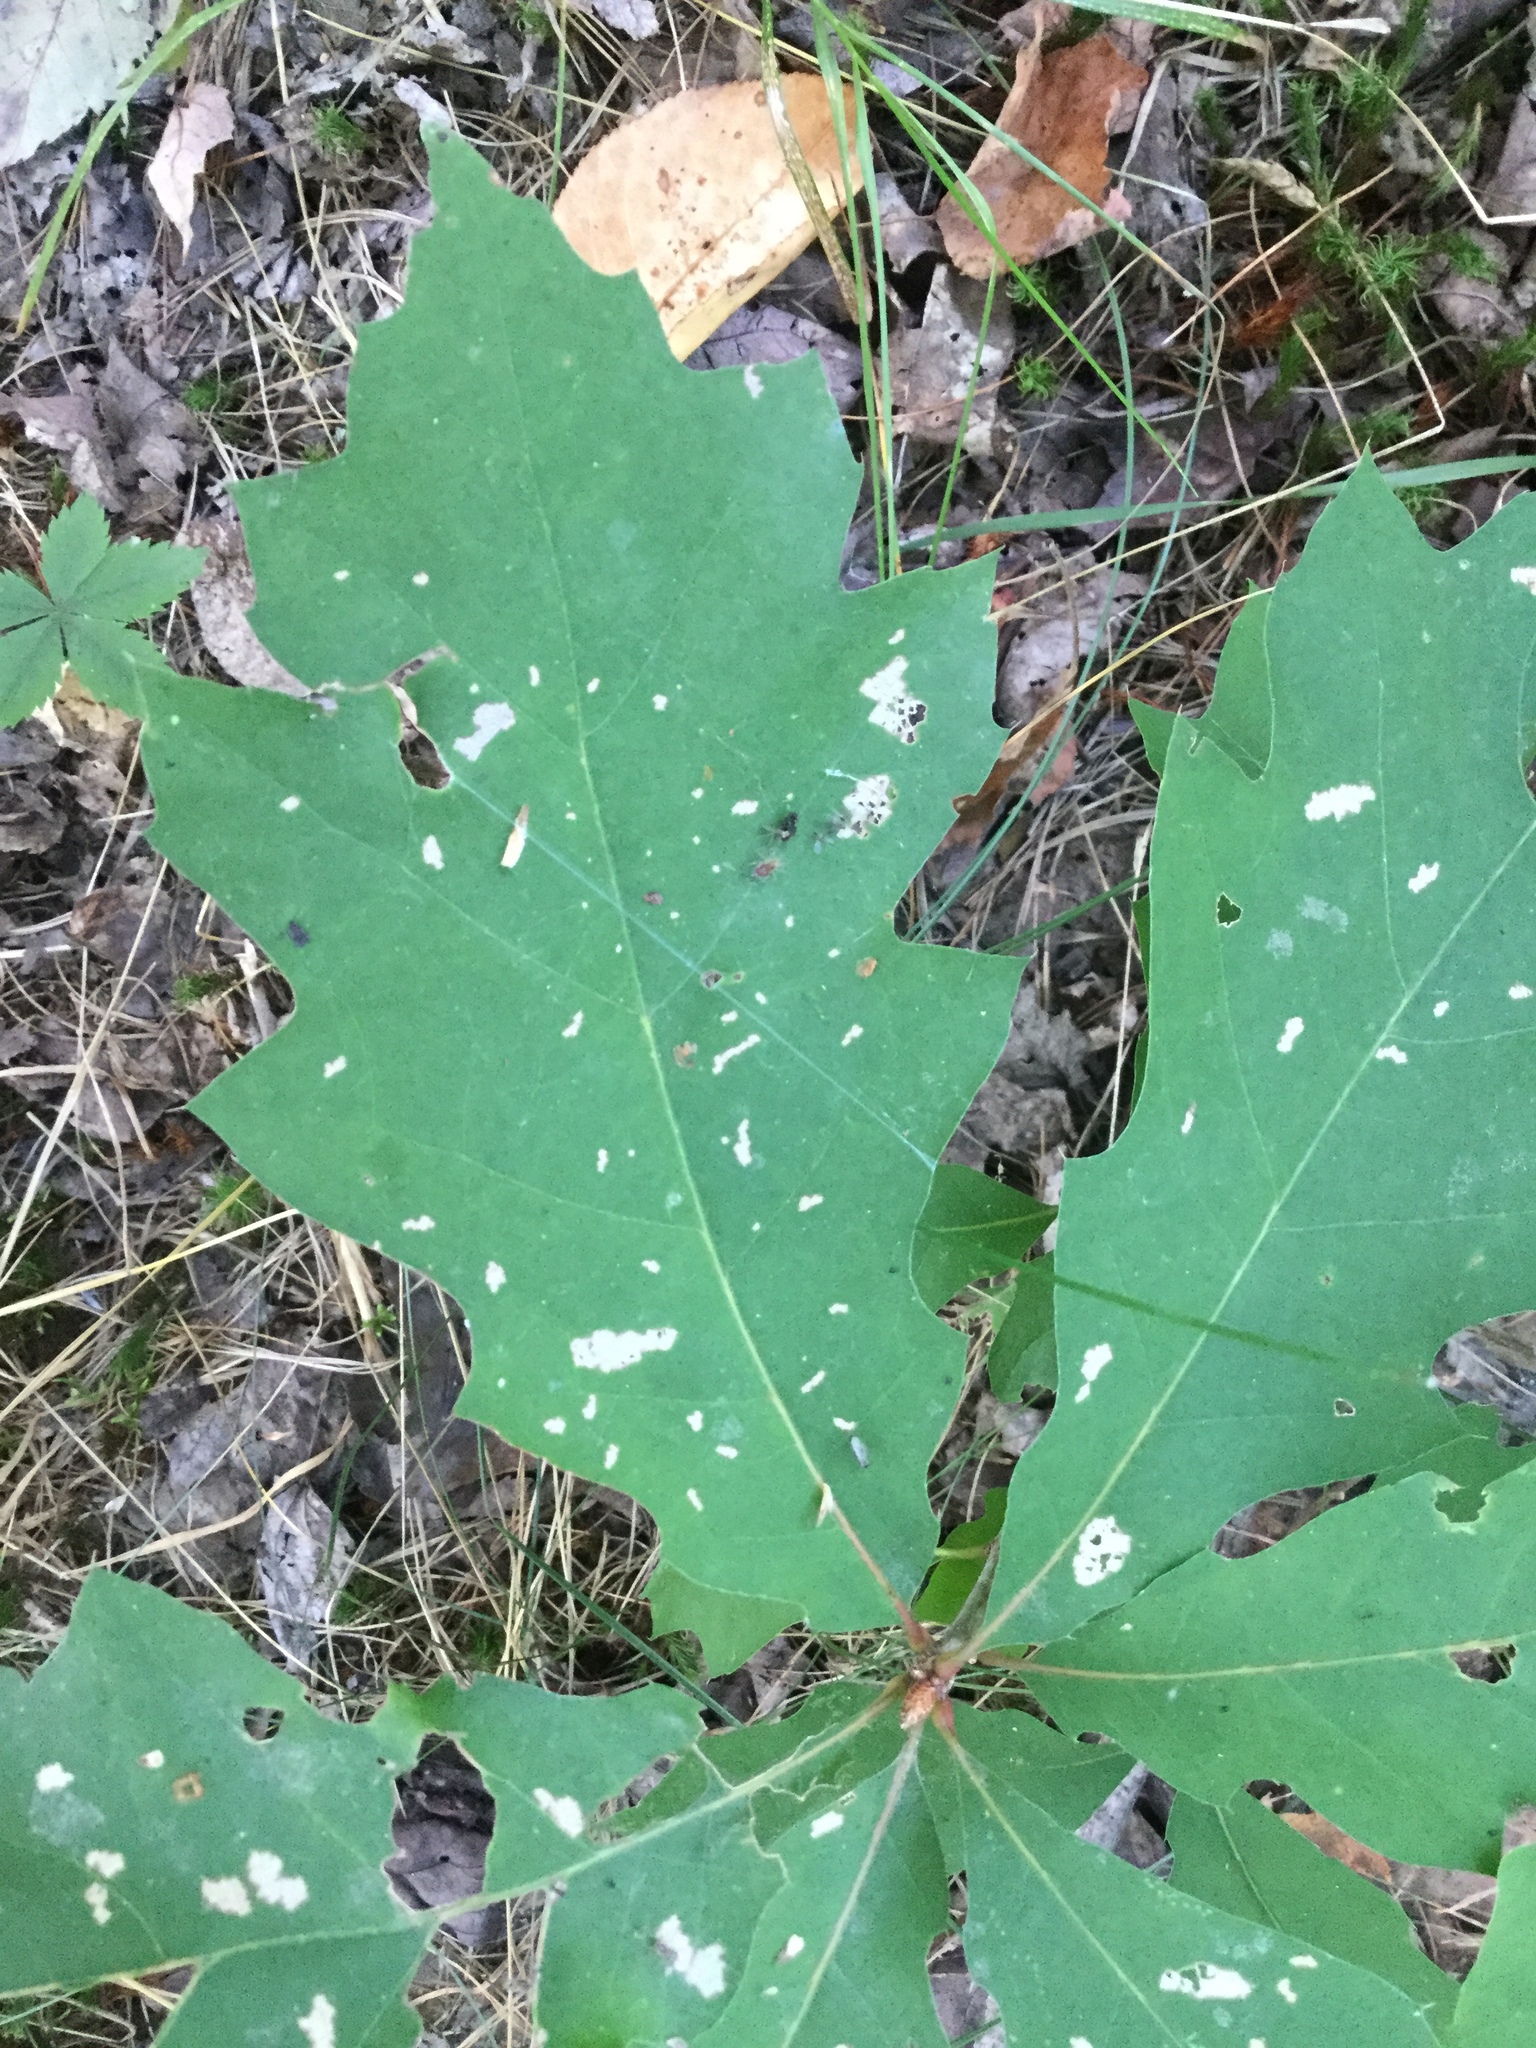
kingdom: Plantae
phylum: Tracheophyta
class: Magnoliopsida
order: Fagales
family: Fagaceae
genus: Quercus
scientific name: Quercus rubra
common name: Red oak
